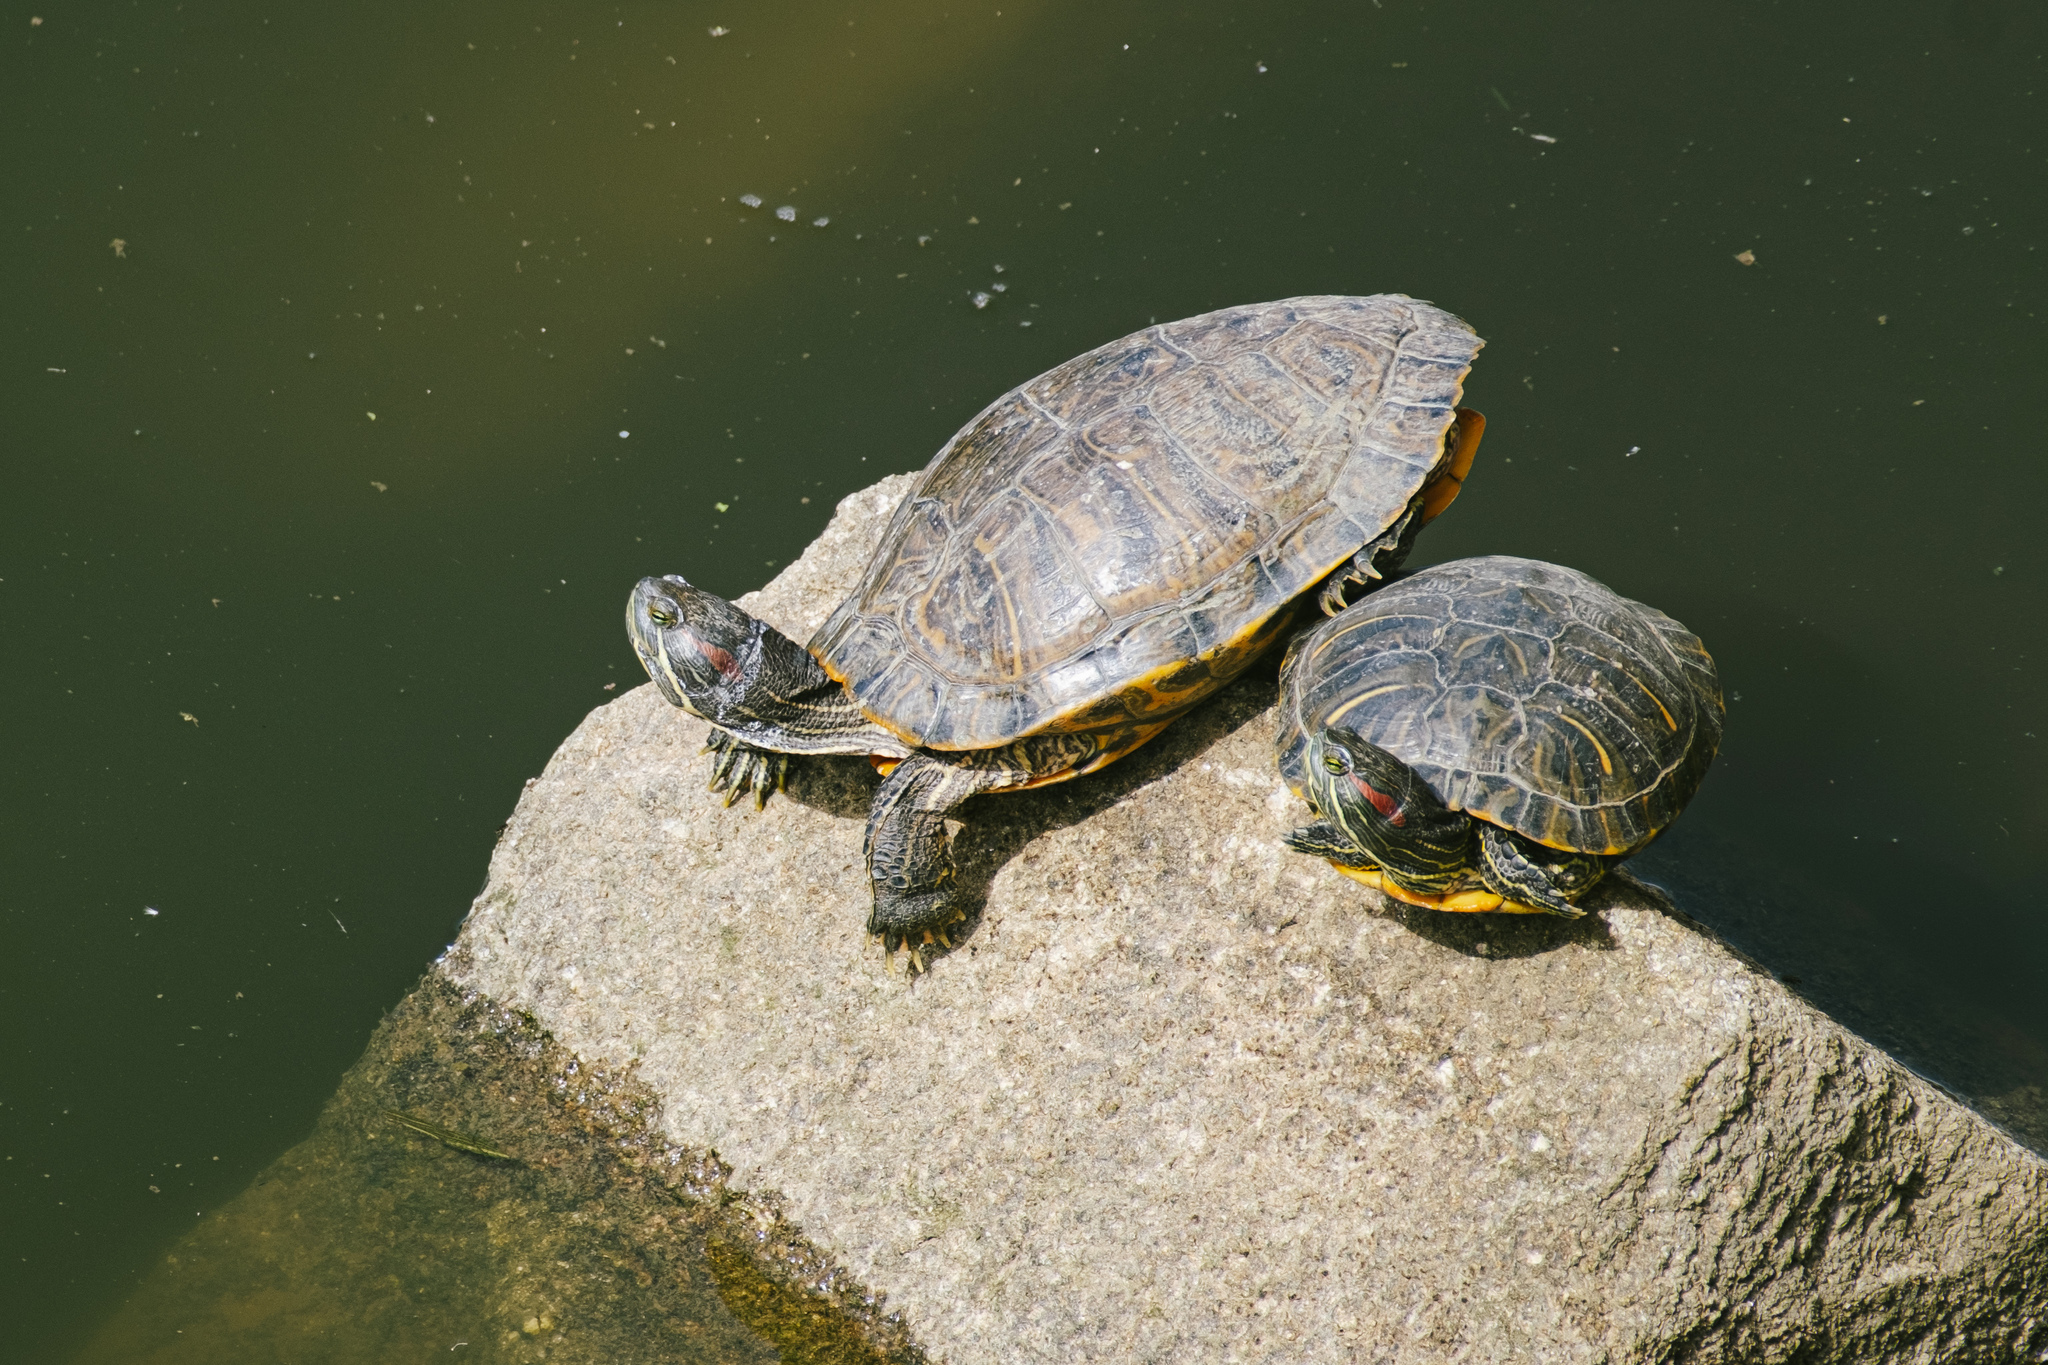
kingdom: Animalia
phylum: Chordata
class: Testudines
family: Emydidae
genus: Trachemys
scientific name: Trachemys scripta
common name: Slider
